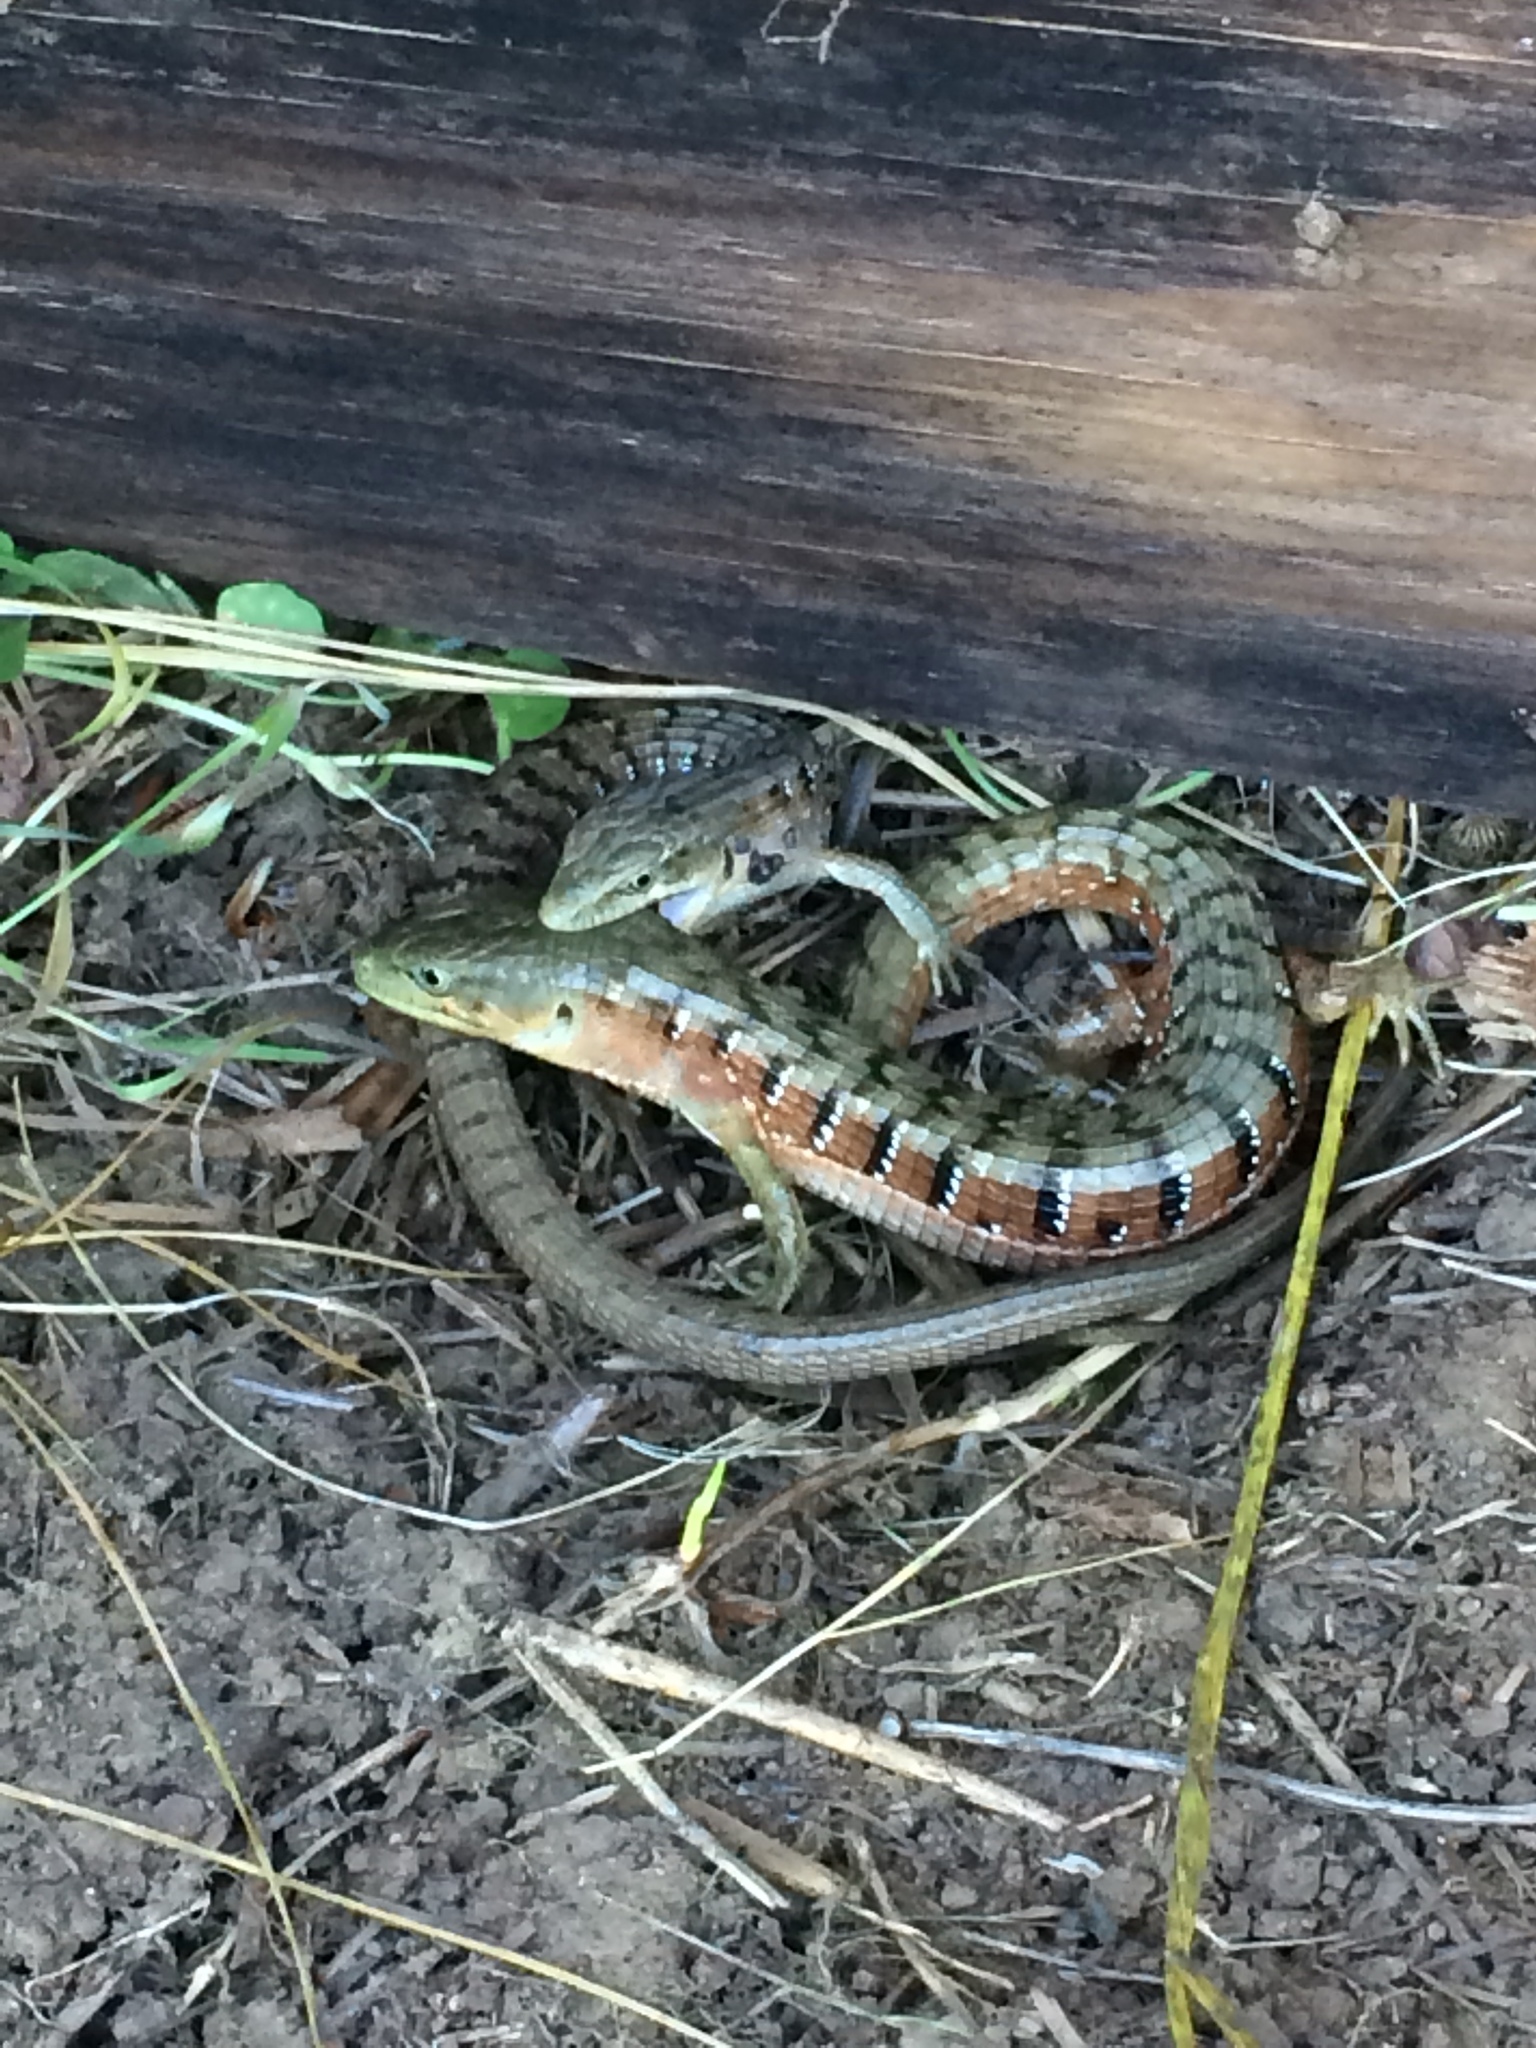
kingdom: Animalia
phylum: Chordata
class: Squamata
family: Anguidae
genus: Elgaria
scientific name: Elgaria multicarinata
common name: Southern alligator lizard
